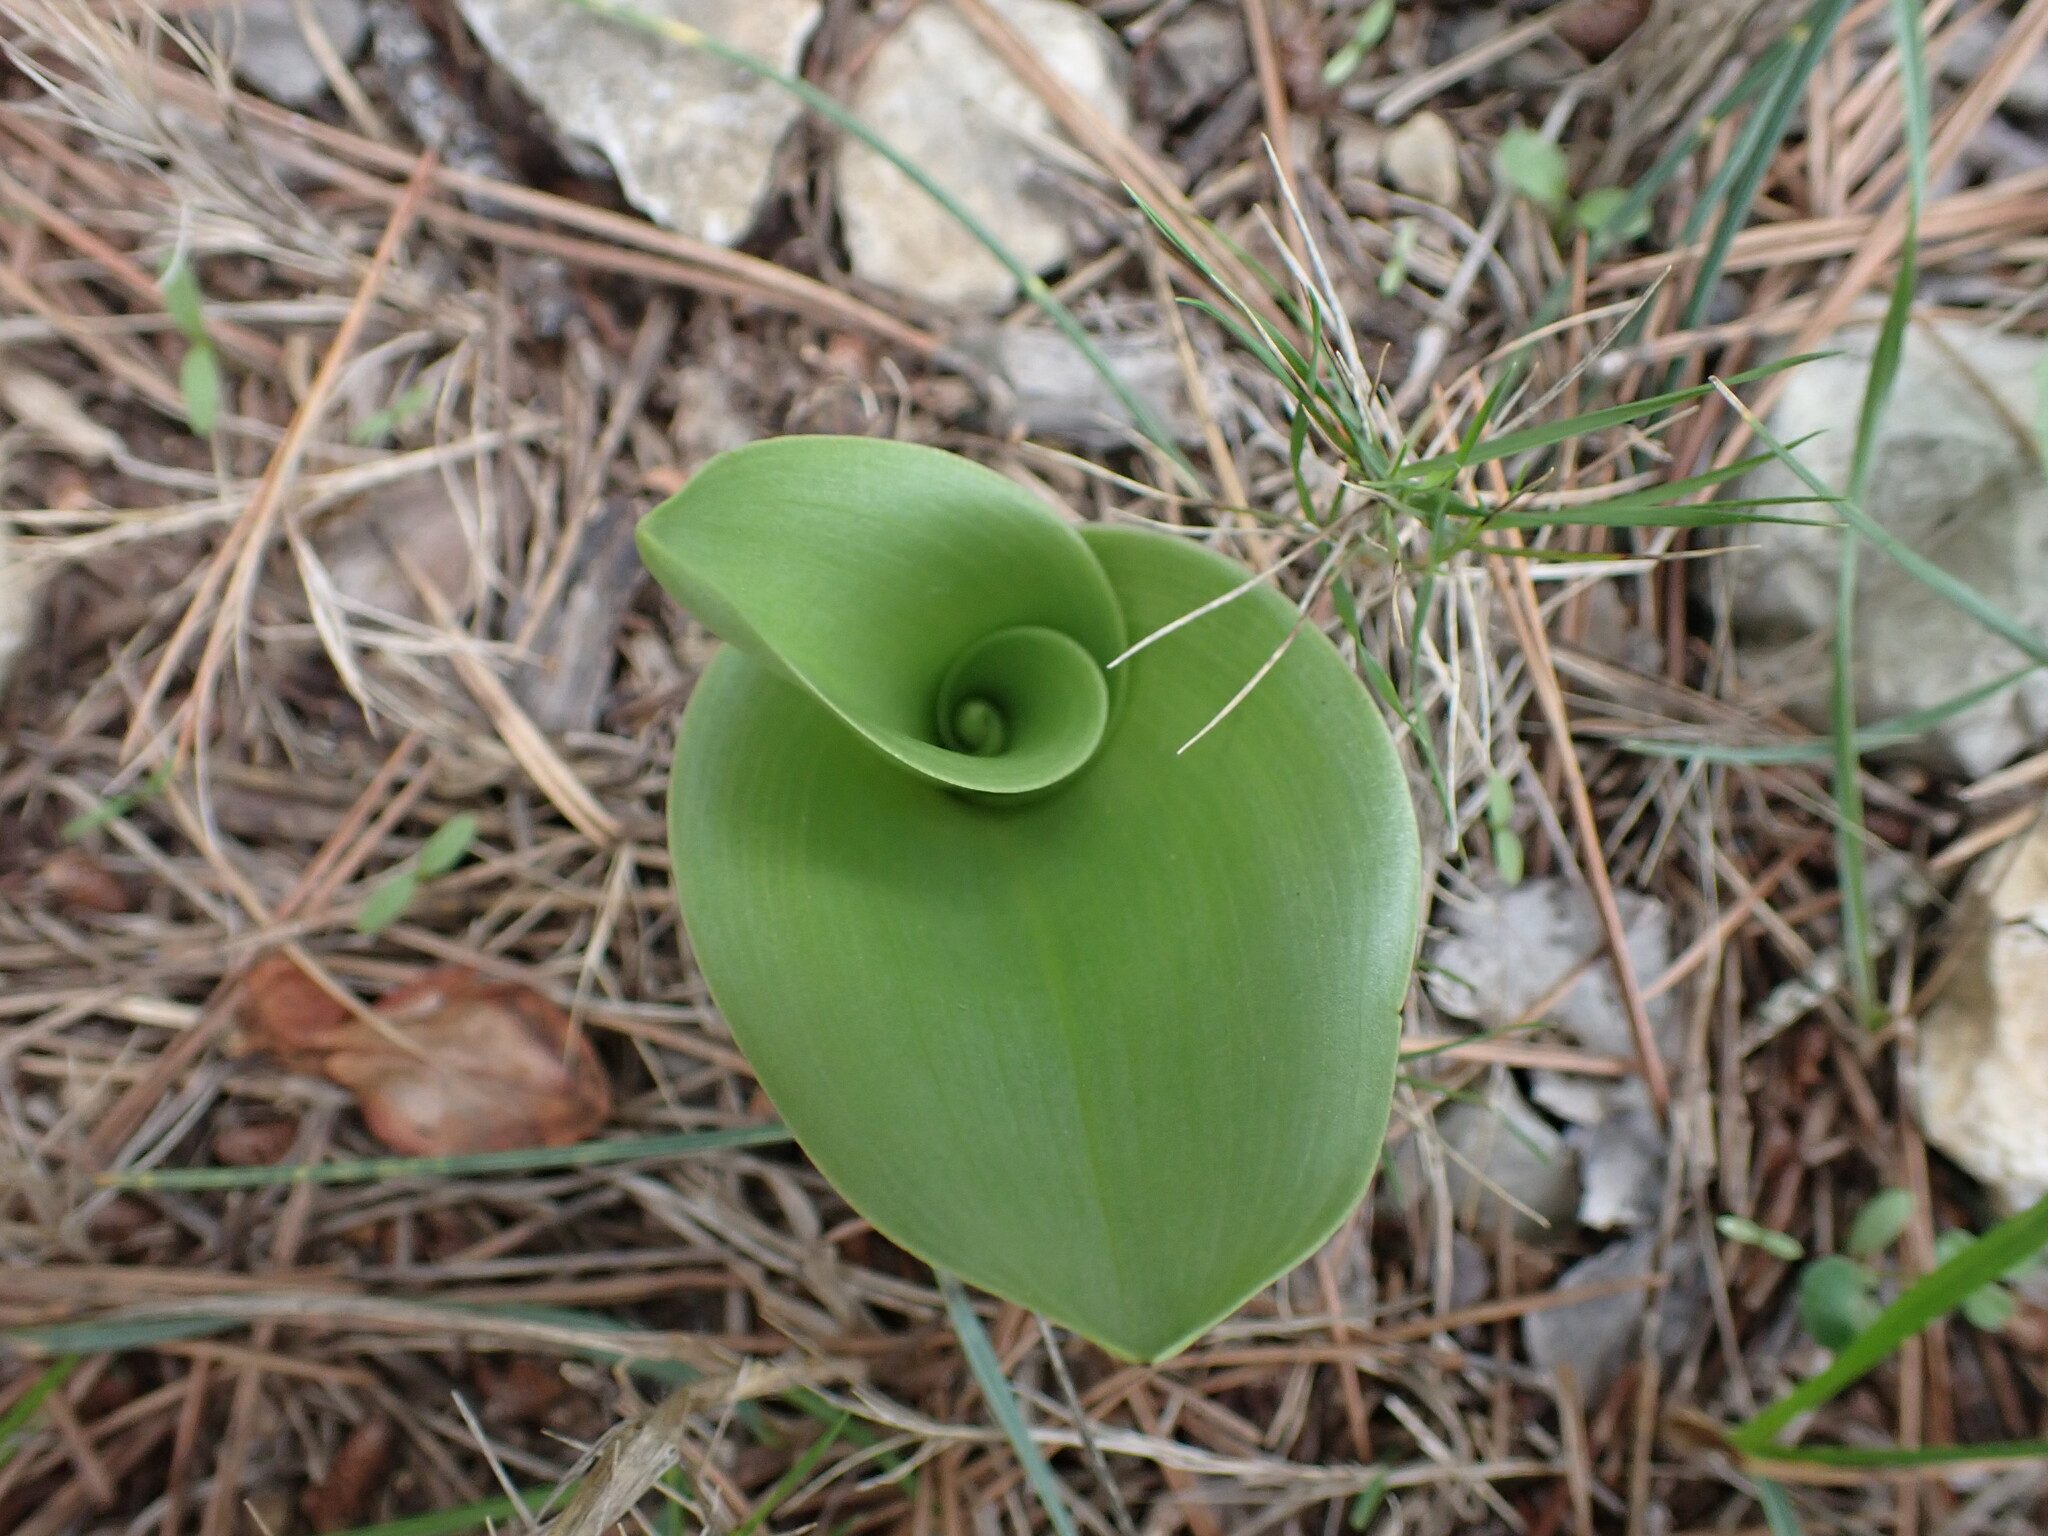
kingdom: Plantae
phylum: Tracheophyta
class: Liliopsida
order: Asparagales
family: Orchidaceae
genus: Himantoglossum
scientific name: Himantoglossum robertianum
